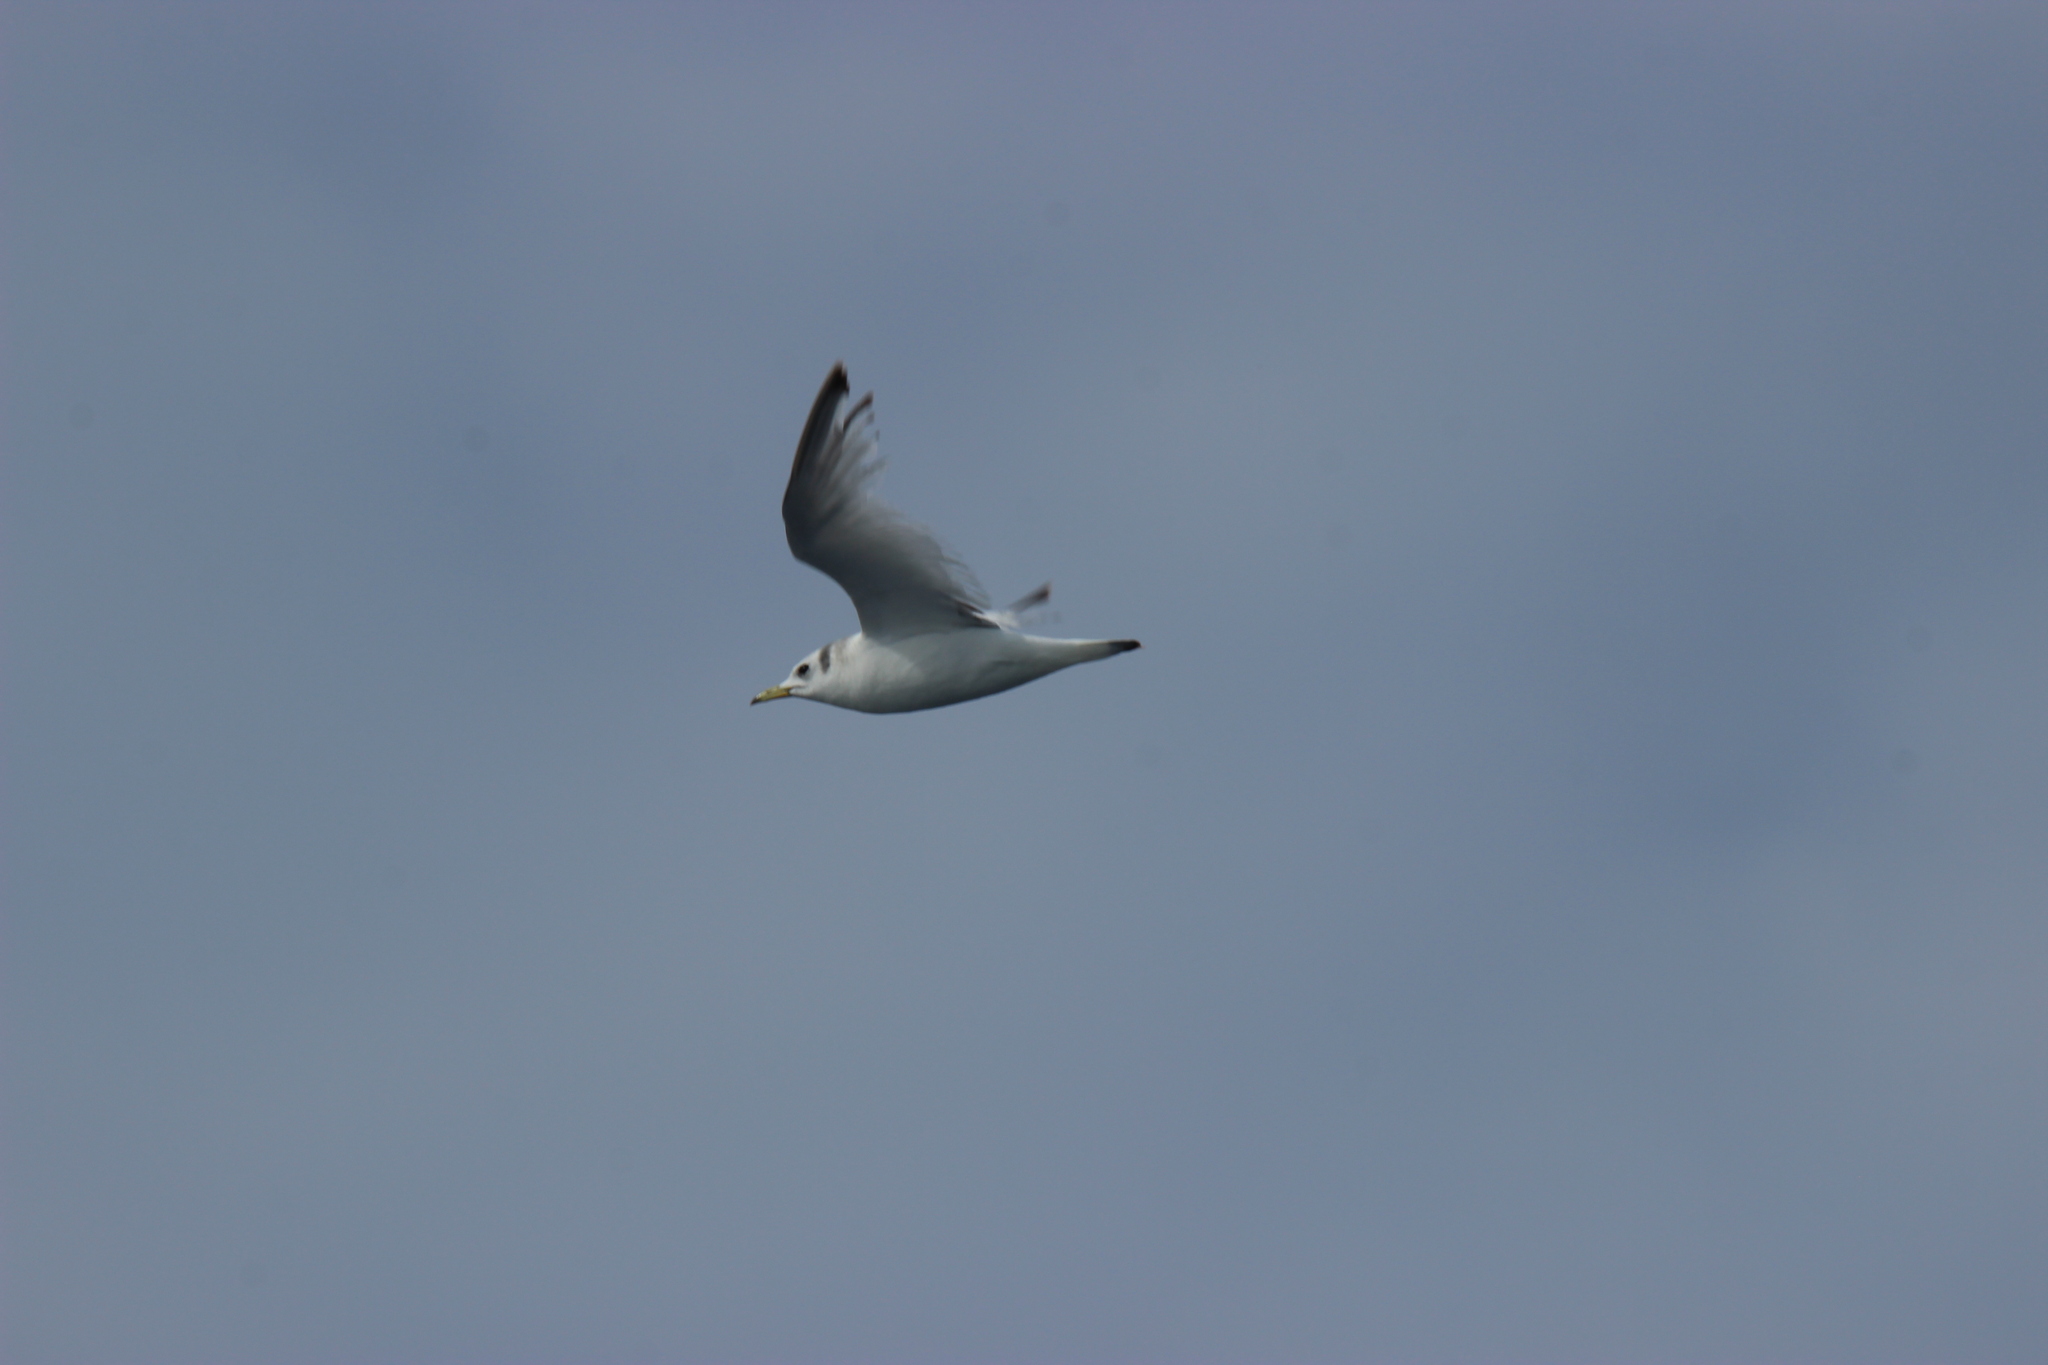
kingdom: Animalia
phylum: Chordata
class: Aves
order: Charadriiformes
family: Laridae
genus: Rissa
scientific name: Rissa tridactyla
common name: Black-legged kittiwake
